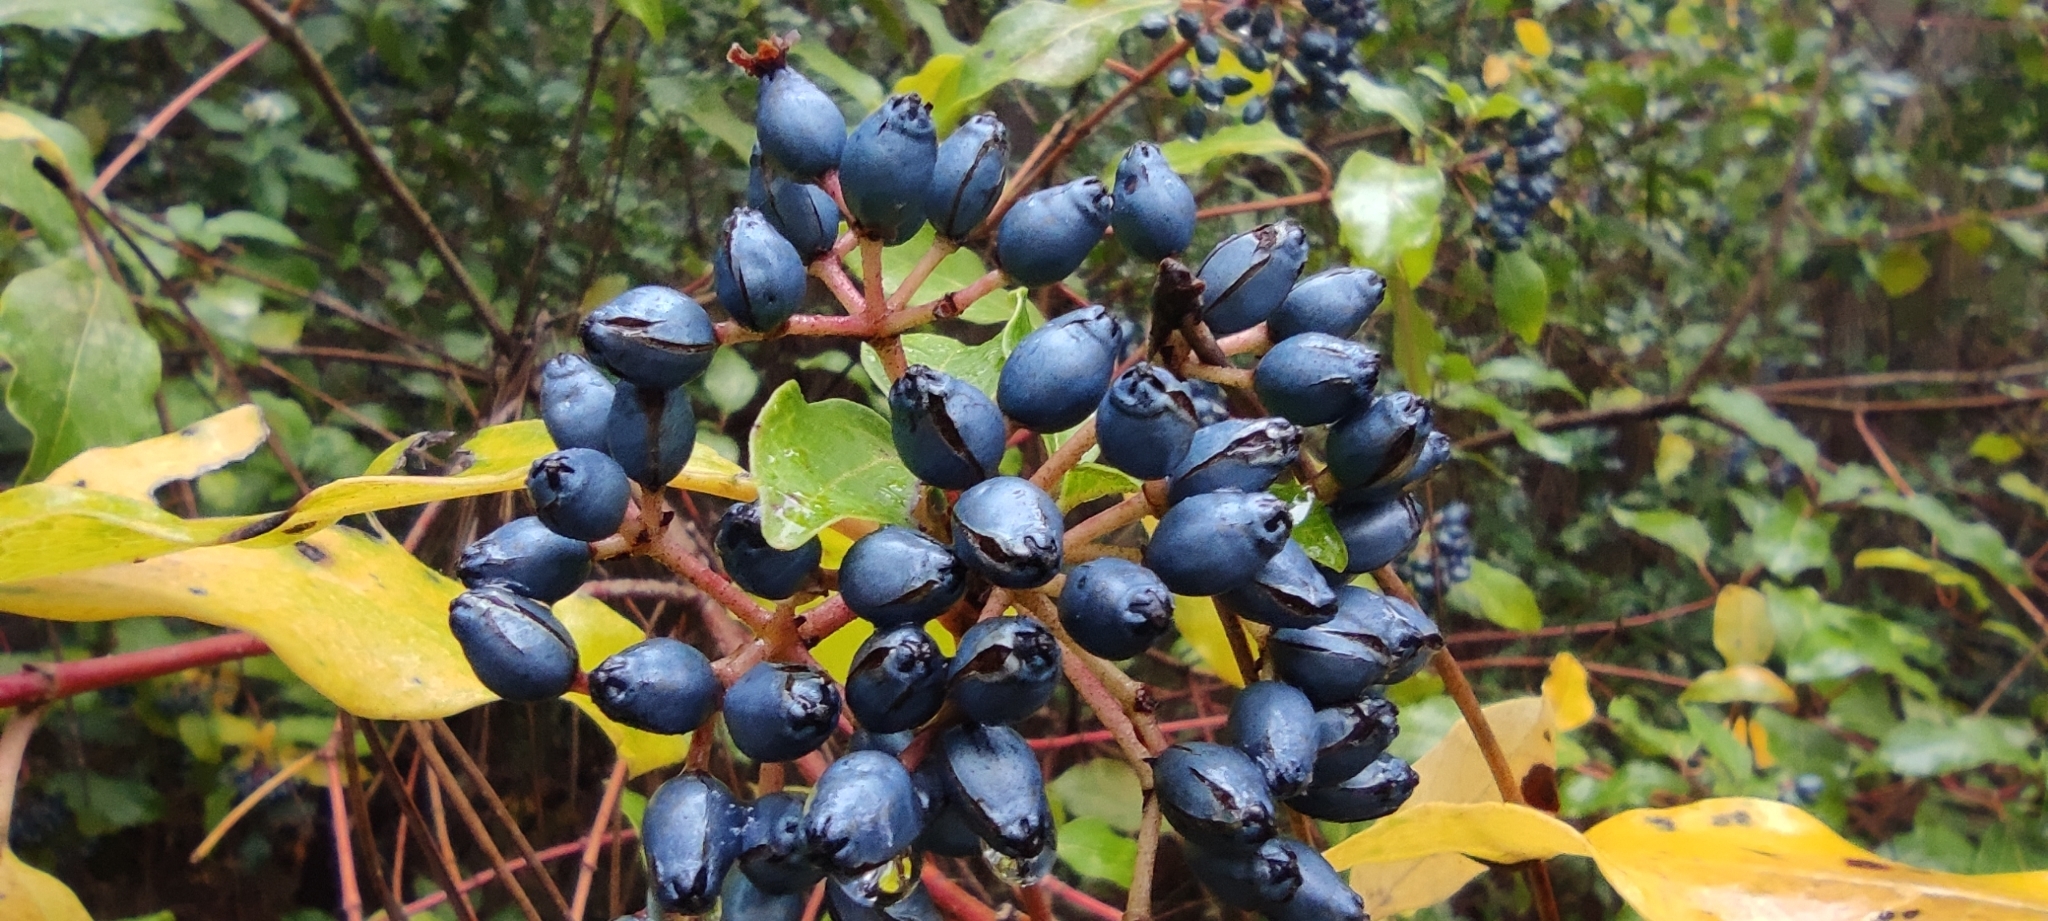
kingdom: Plantae
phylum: Tracheophyta
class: Magnoliopsida
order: Dipsacales
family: Viburnaceae
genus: Viburnum
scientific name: Viburnum tinus
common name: Laurustinus
